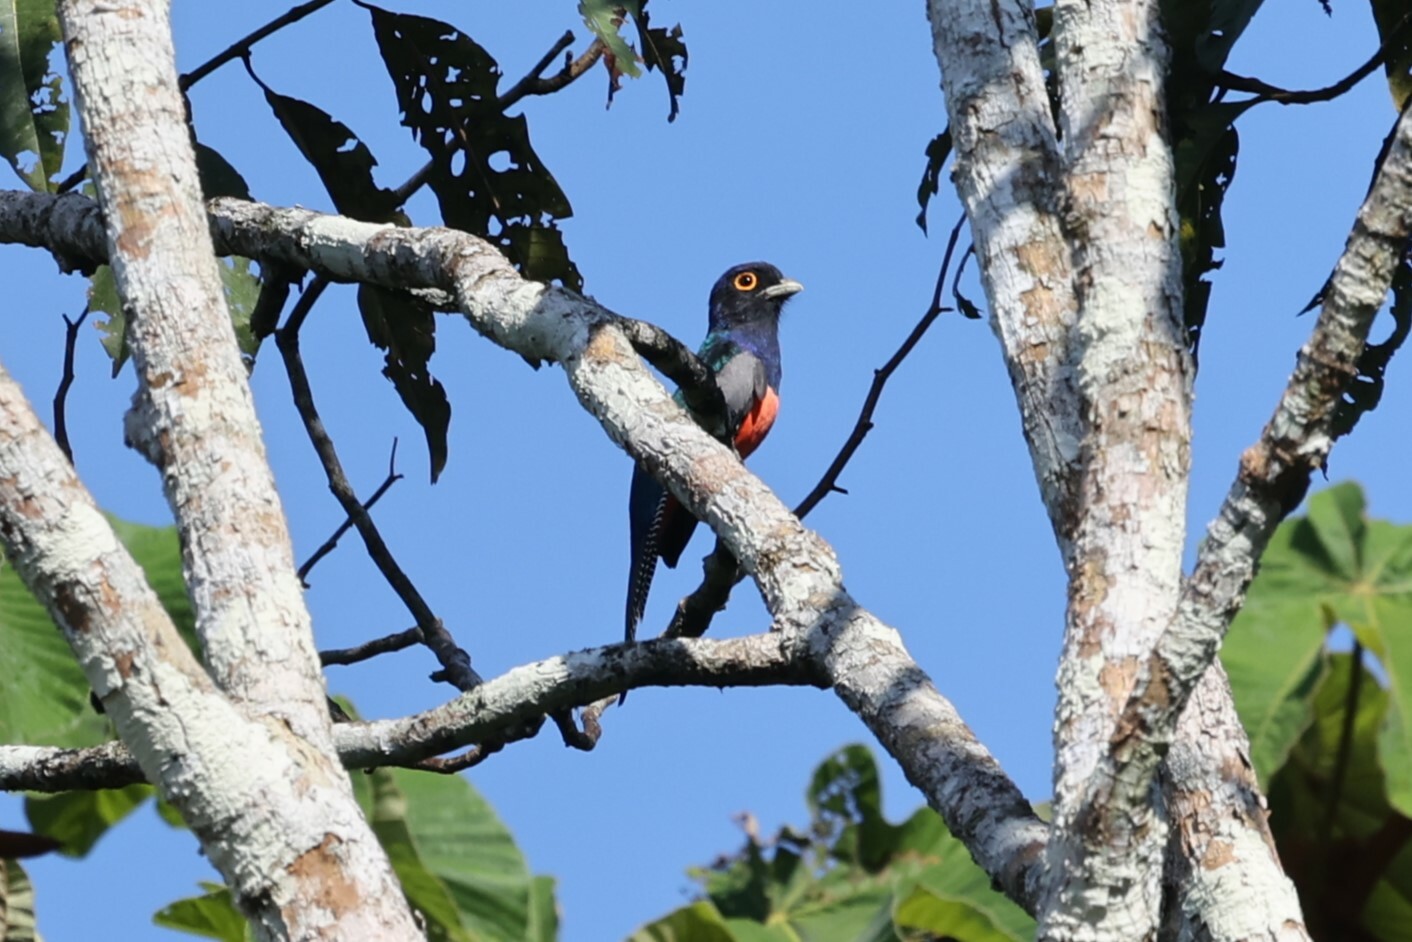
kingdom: Animalia
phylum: Chordata
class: Aves
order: Trogoniformes
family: Trogonidae
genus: Trogon
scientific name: Trogon curucui
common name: Blue-crowned trogon
